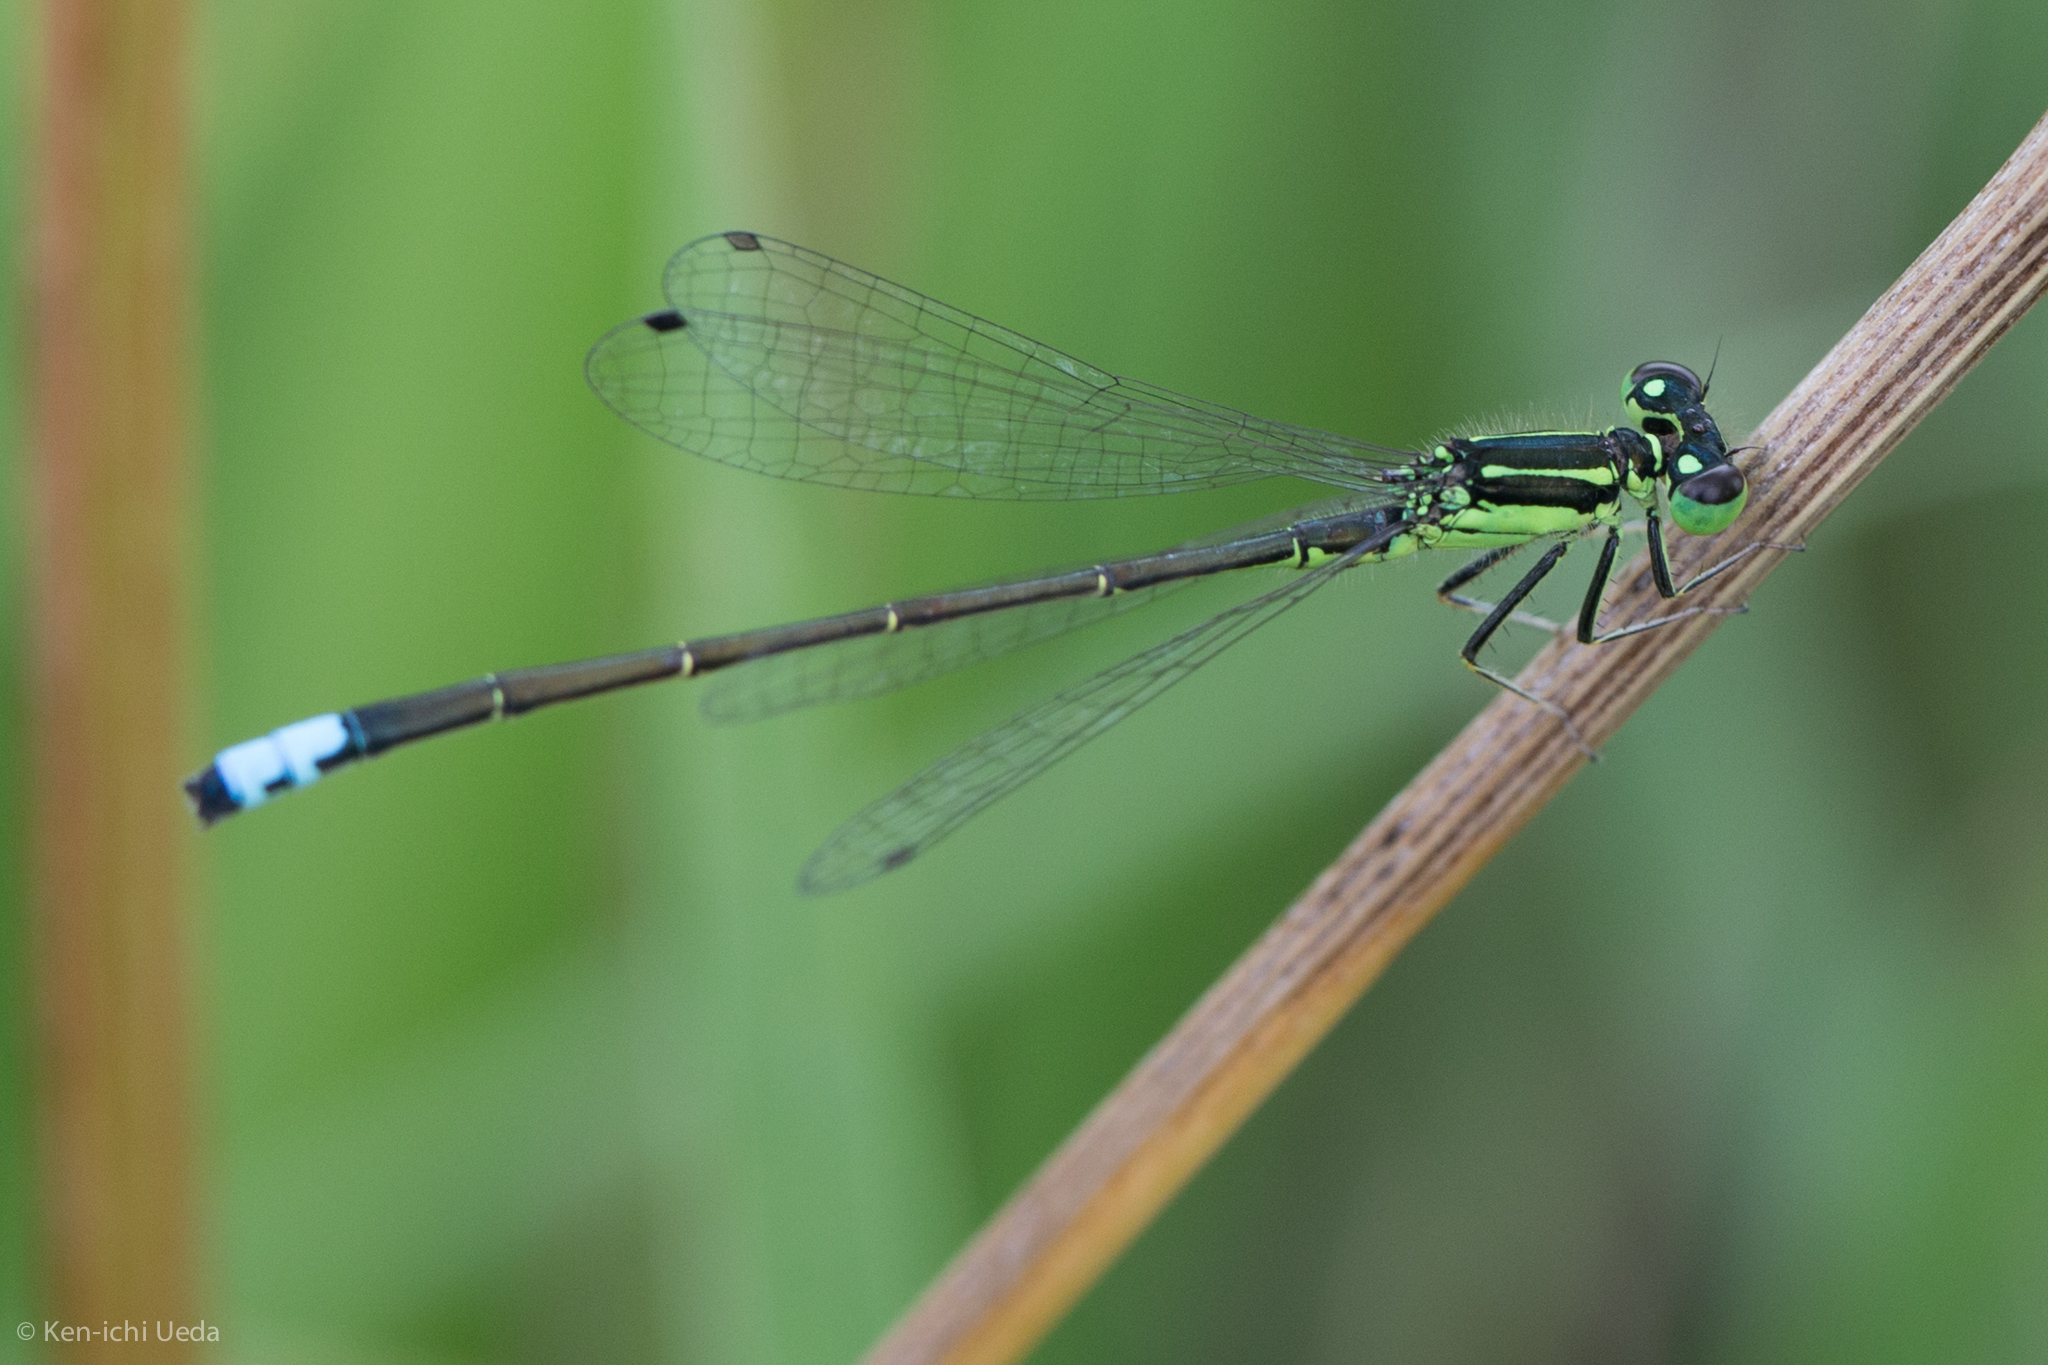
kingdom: Animalia
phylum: Arthropoda
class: Insecta
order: Odonata
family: Coenagrionidae
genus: Ischnura
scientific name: Ischnura verticalis
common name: Eastern forktail
